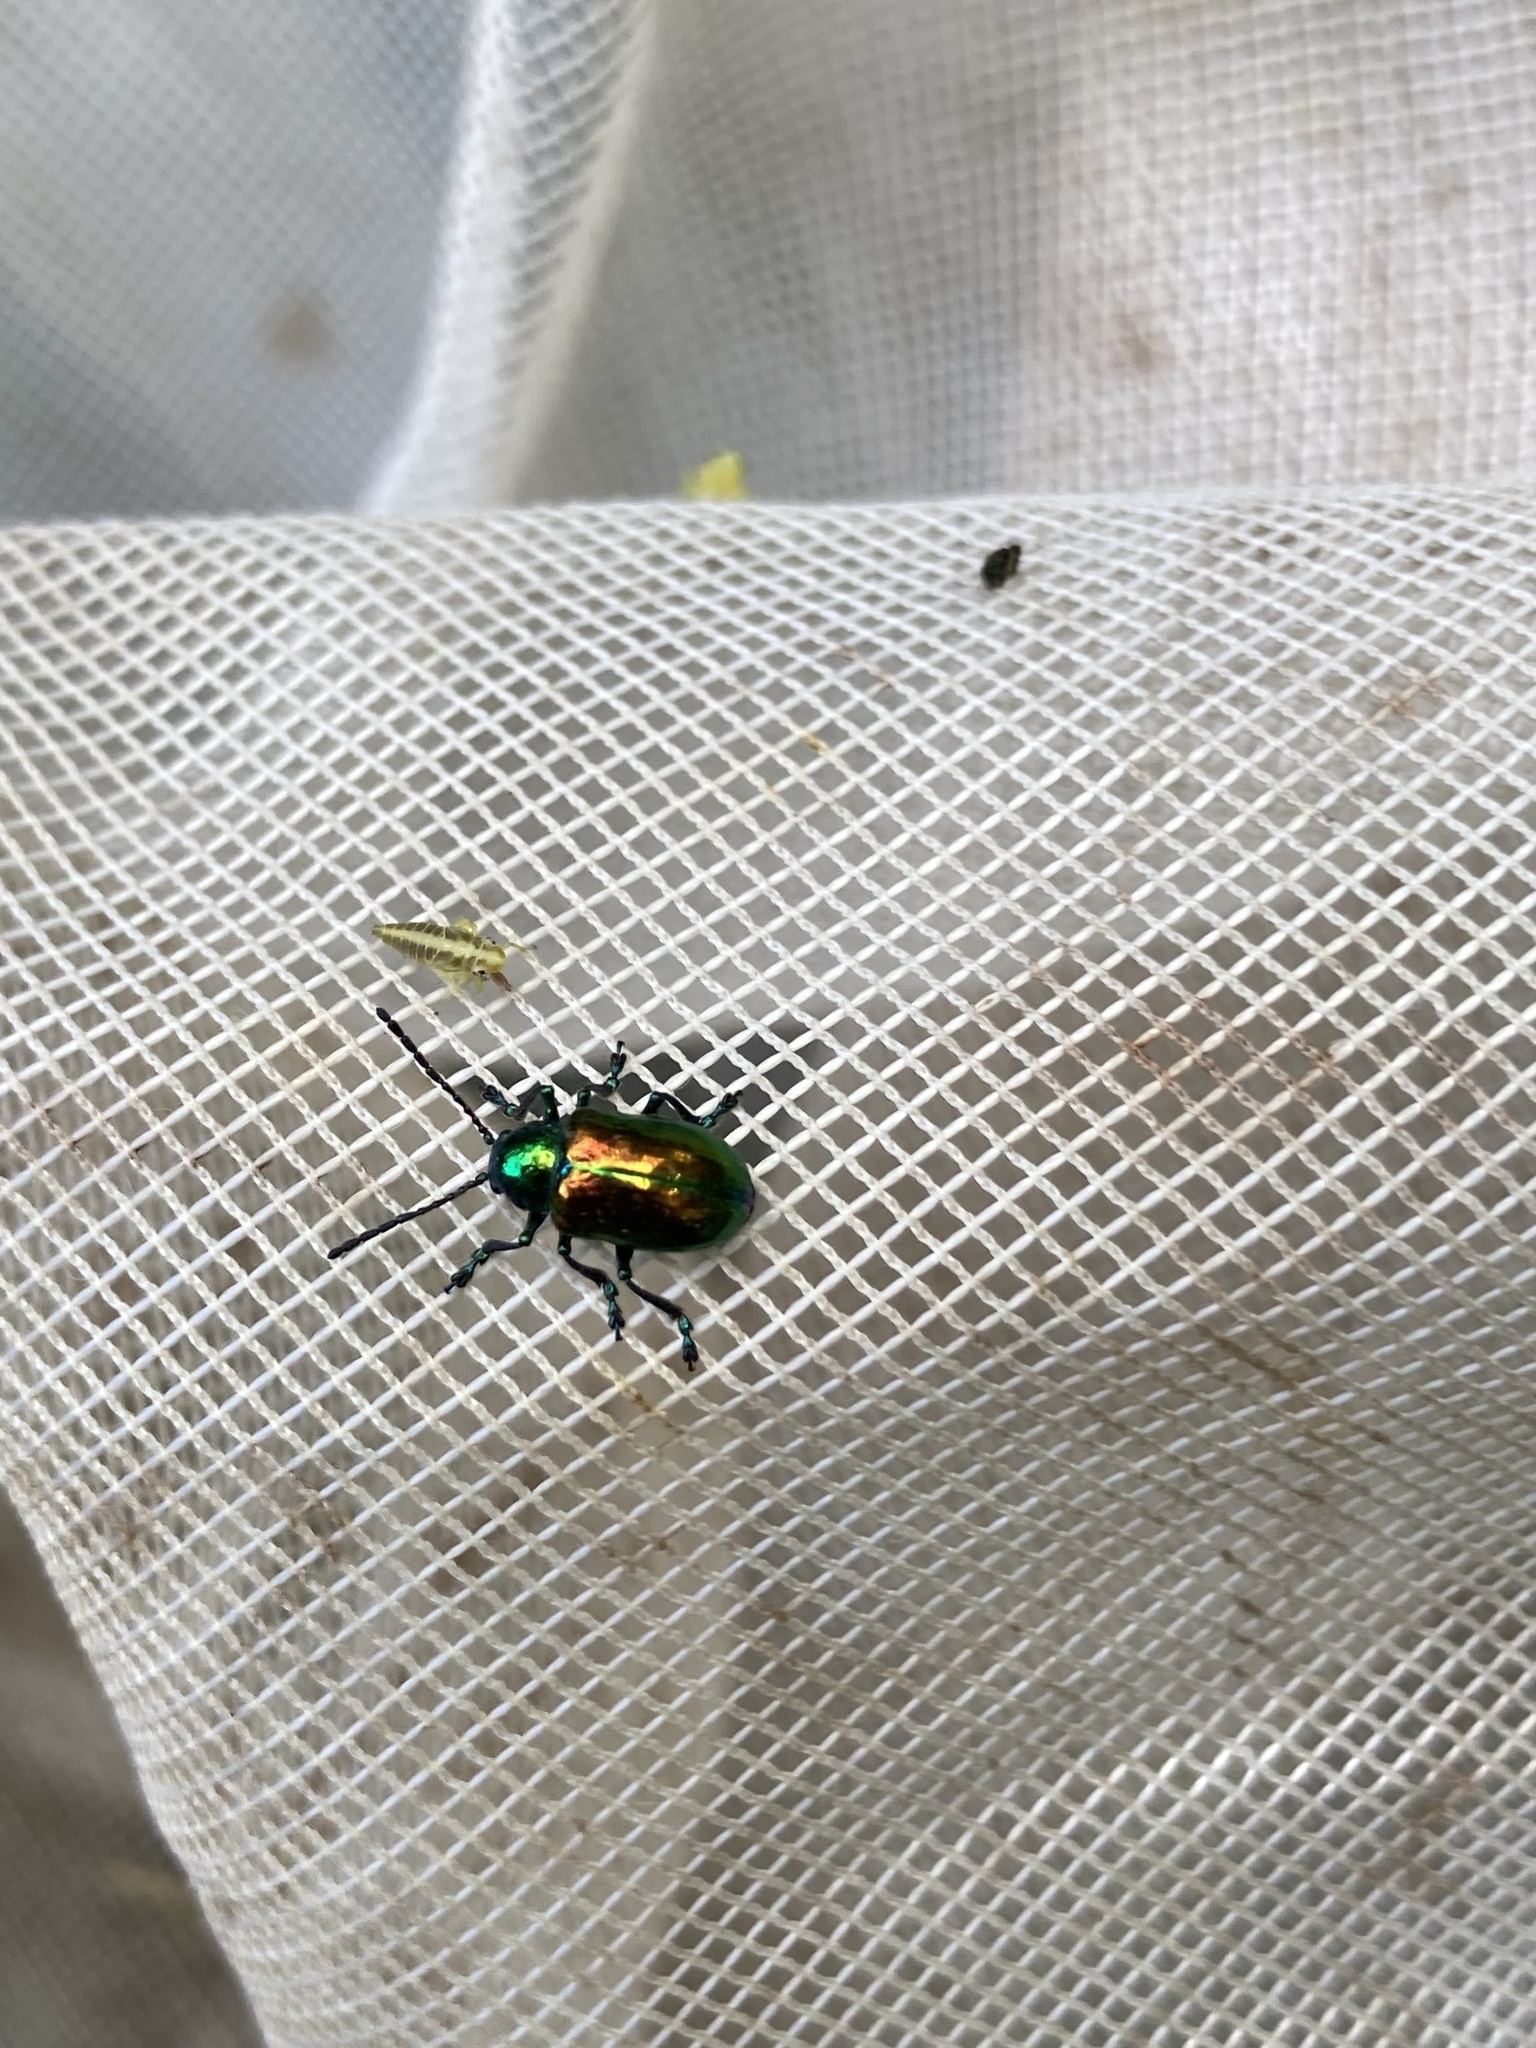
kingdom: Animalia
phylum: Arthropoda
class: Insecta
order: Coleoptera
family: Chrysomelidae
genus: Chrysochus
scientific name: Chrysochus auratus
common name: Dogbane leaf beetle
